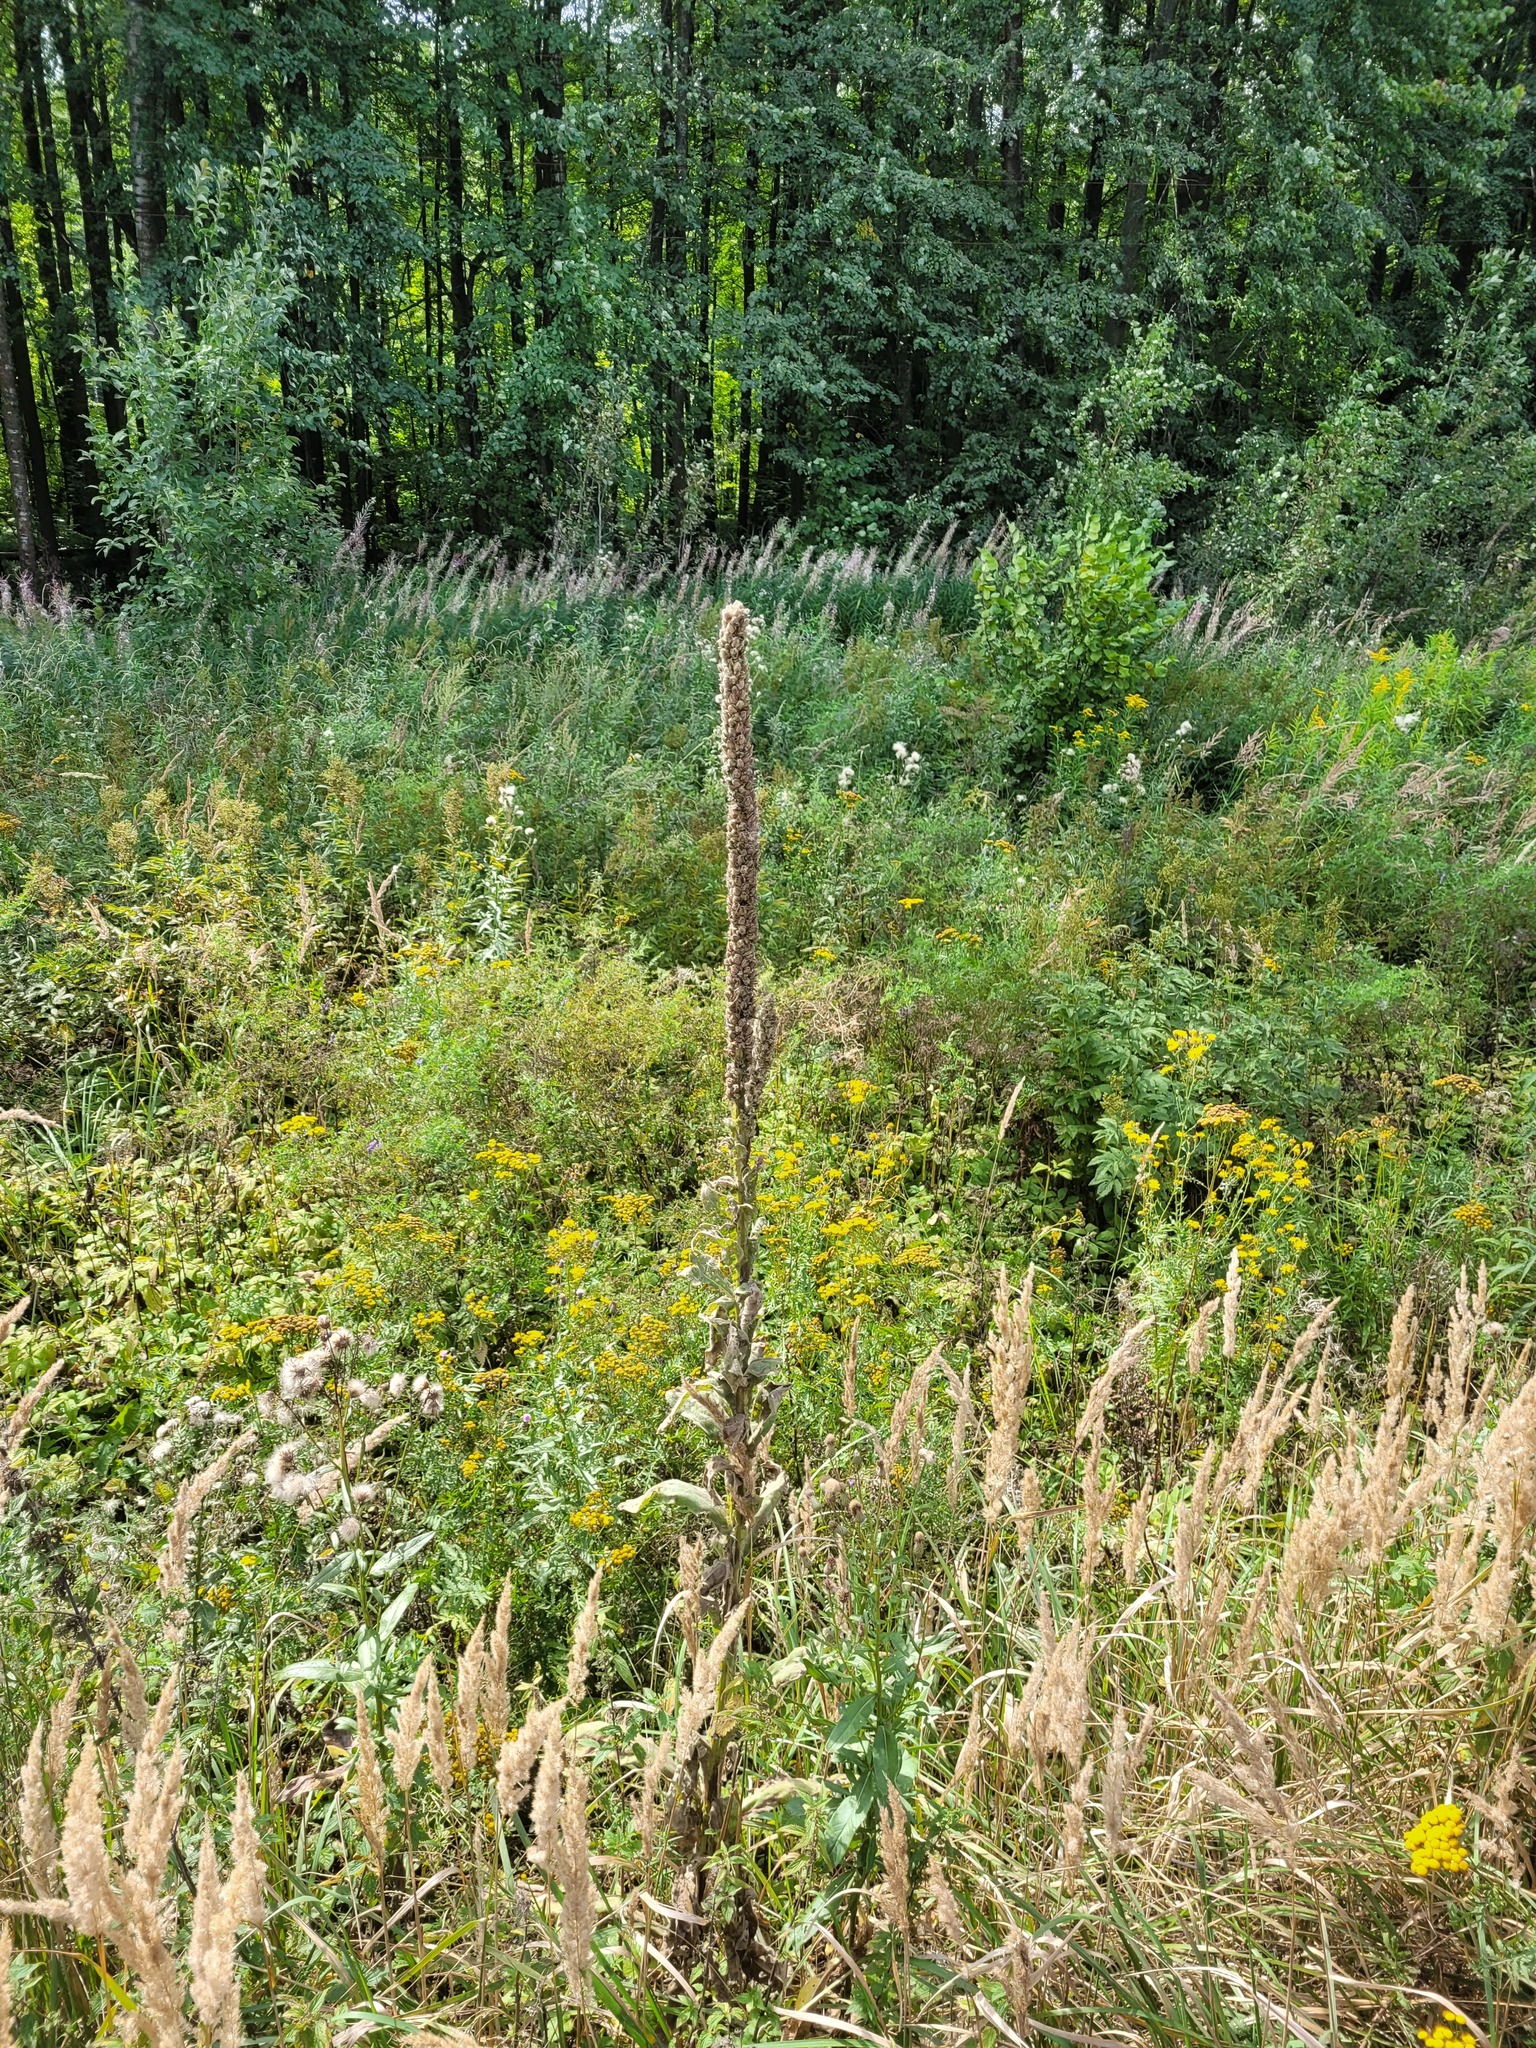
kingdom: Plantae
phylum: Tracheophyta
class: Magnoliopsida
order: Lamiales
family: Scrophulariaceae
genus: Verbascum
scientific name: Verbascum thapsus
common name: Common mullein
